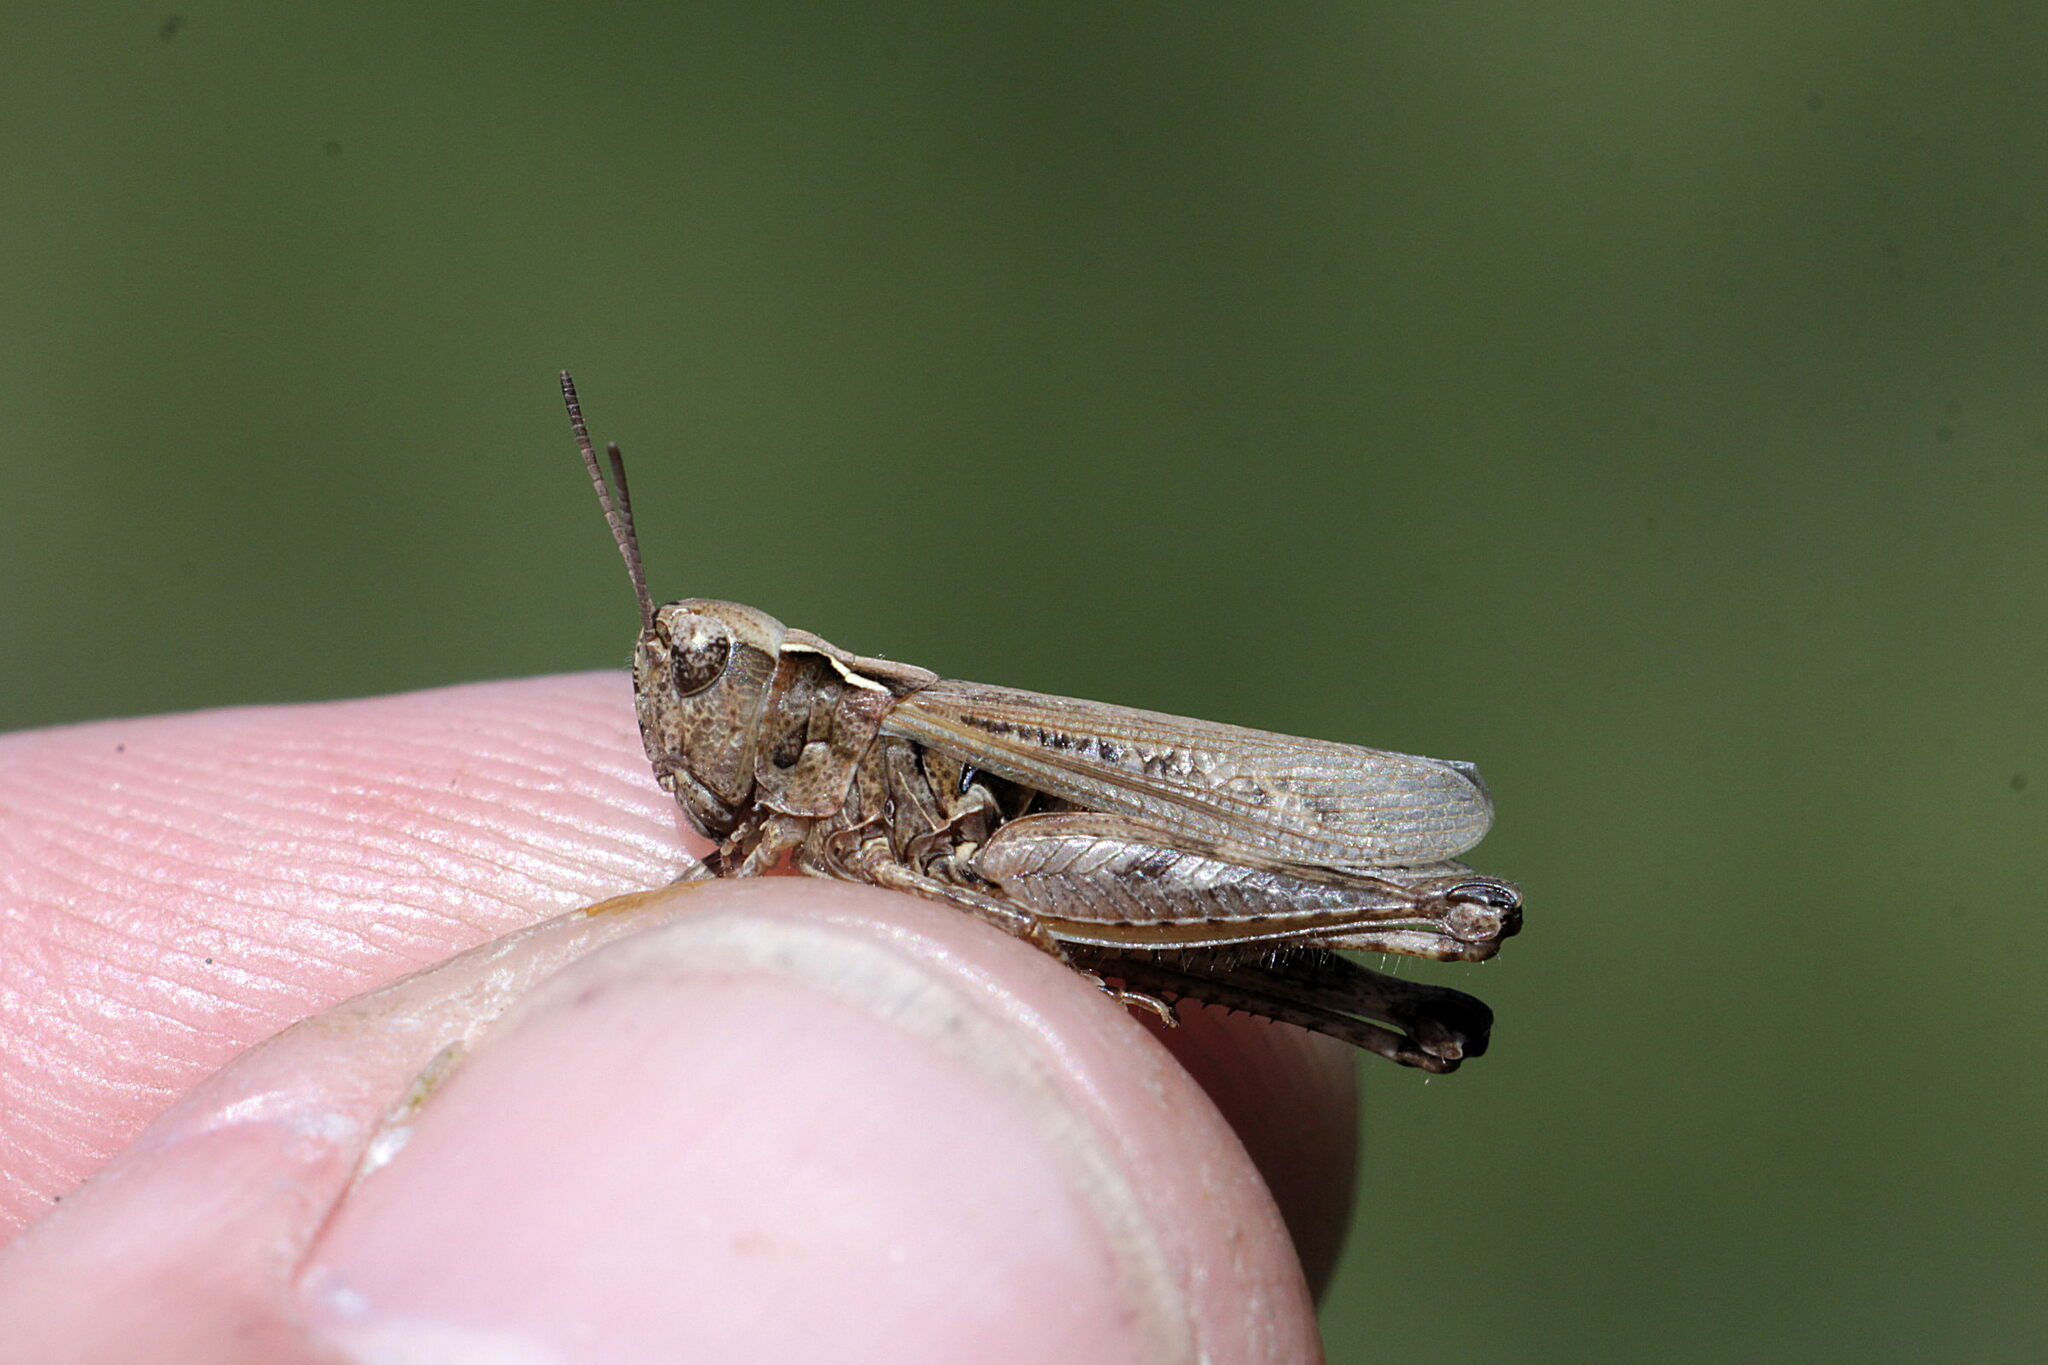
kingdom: Animalia
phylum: Arthropoda
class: Insecta
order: Orthoptera
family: Acrididae
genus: Myrmeleotettix
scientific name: Myrmeleotettix maculatus
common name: Mottled grasshopper
